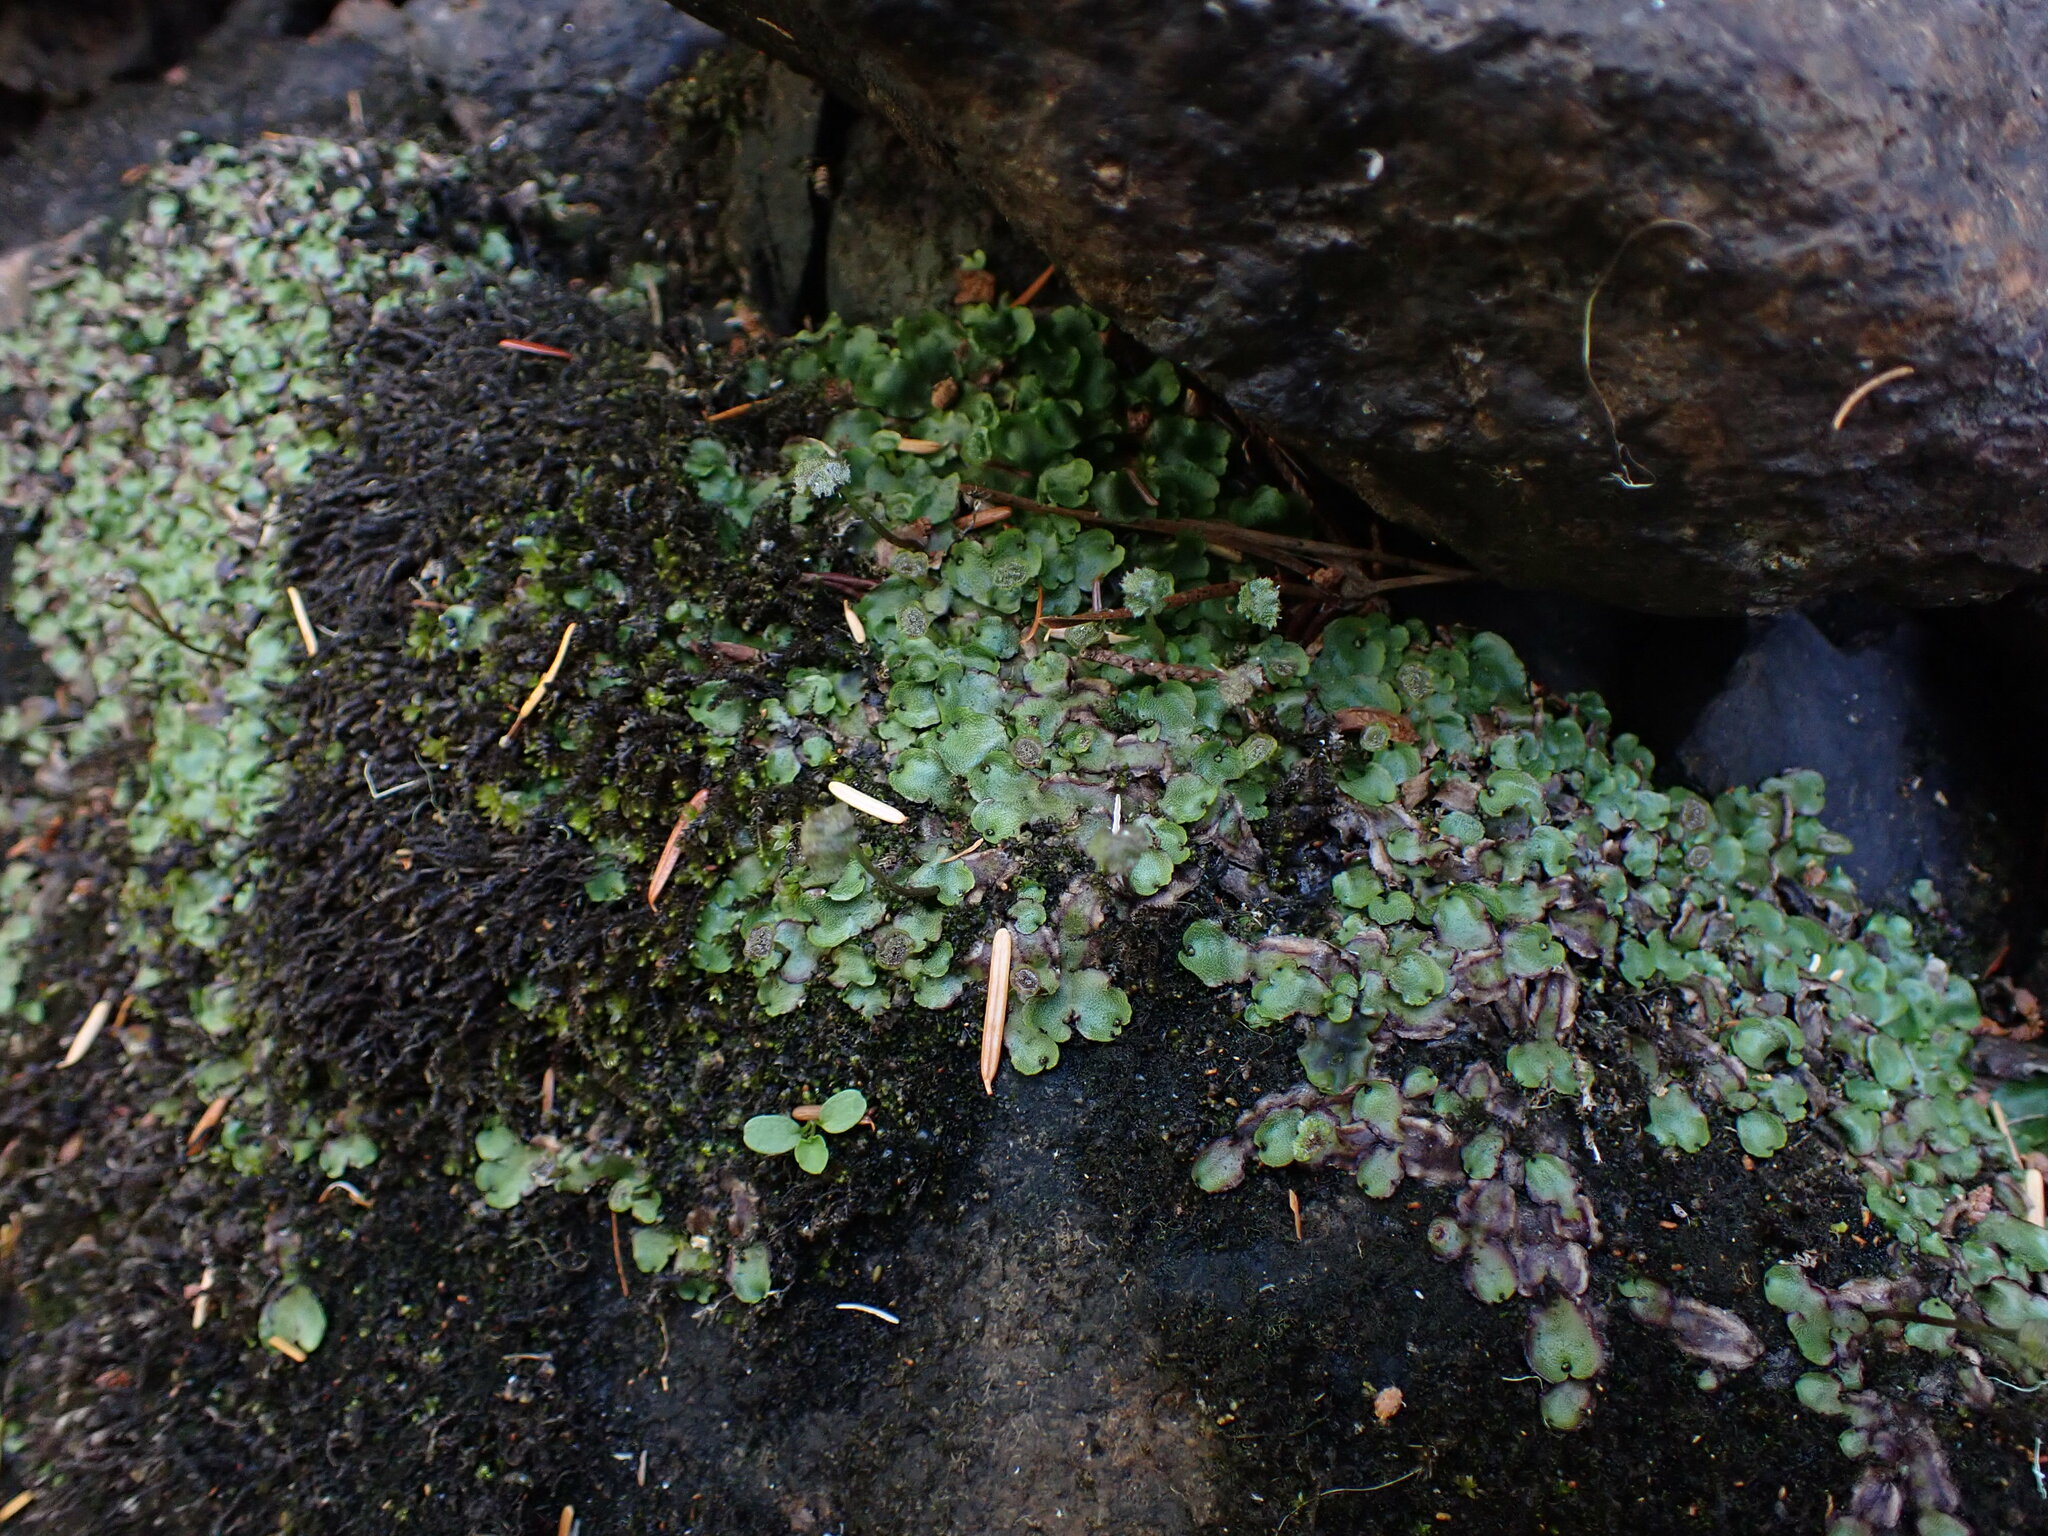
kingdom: Plantae
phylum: Marchantiophyta
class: Marchantiopsida
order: Marchantiales
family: Marchantiaceae
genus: Marchantia
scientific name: Marchantia quadrata
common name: Narrow mushroom-headed liverwort
